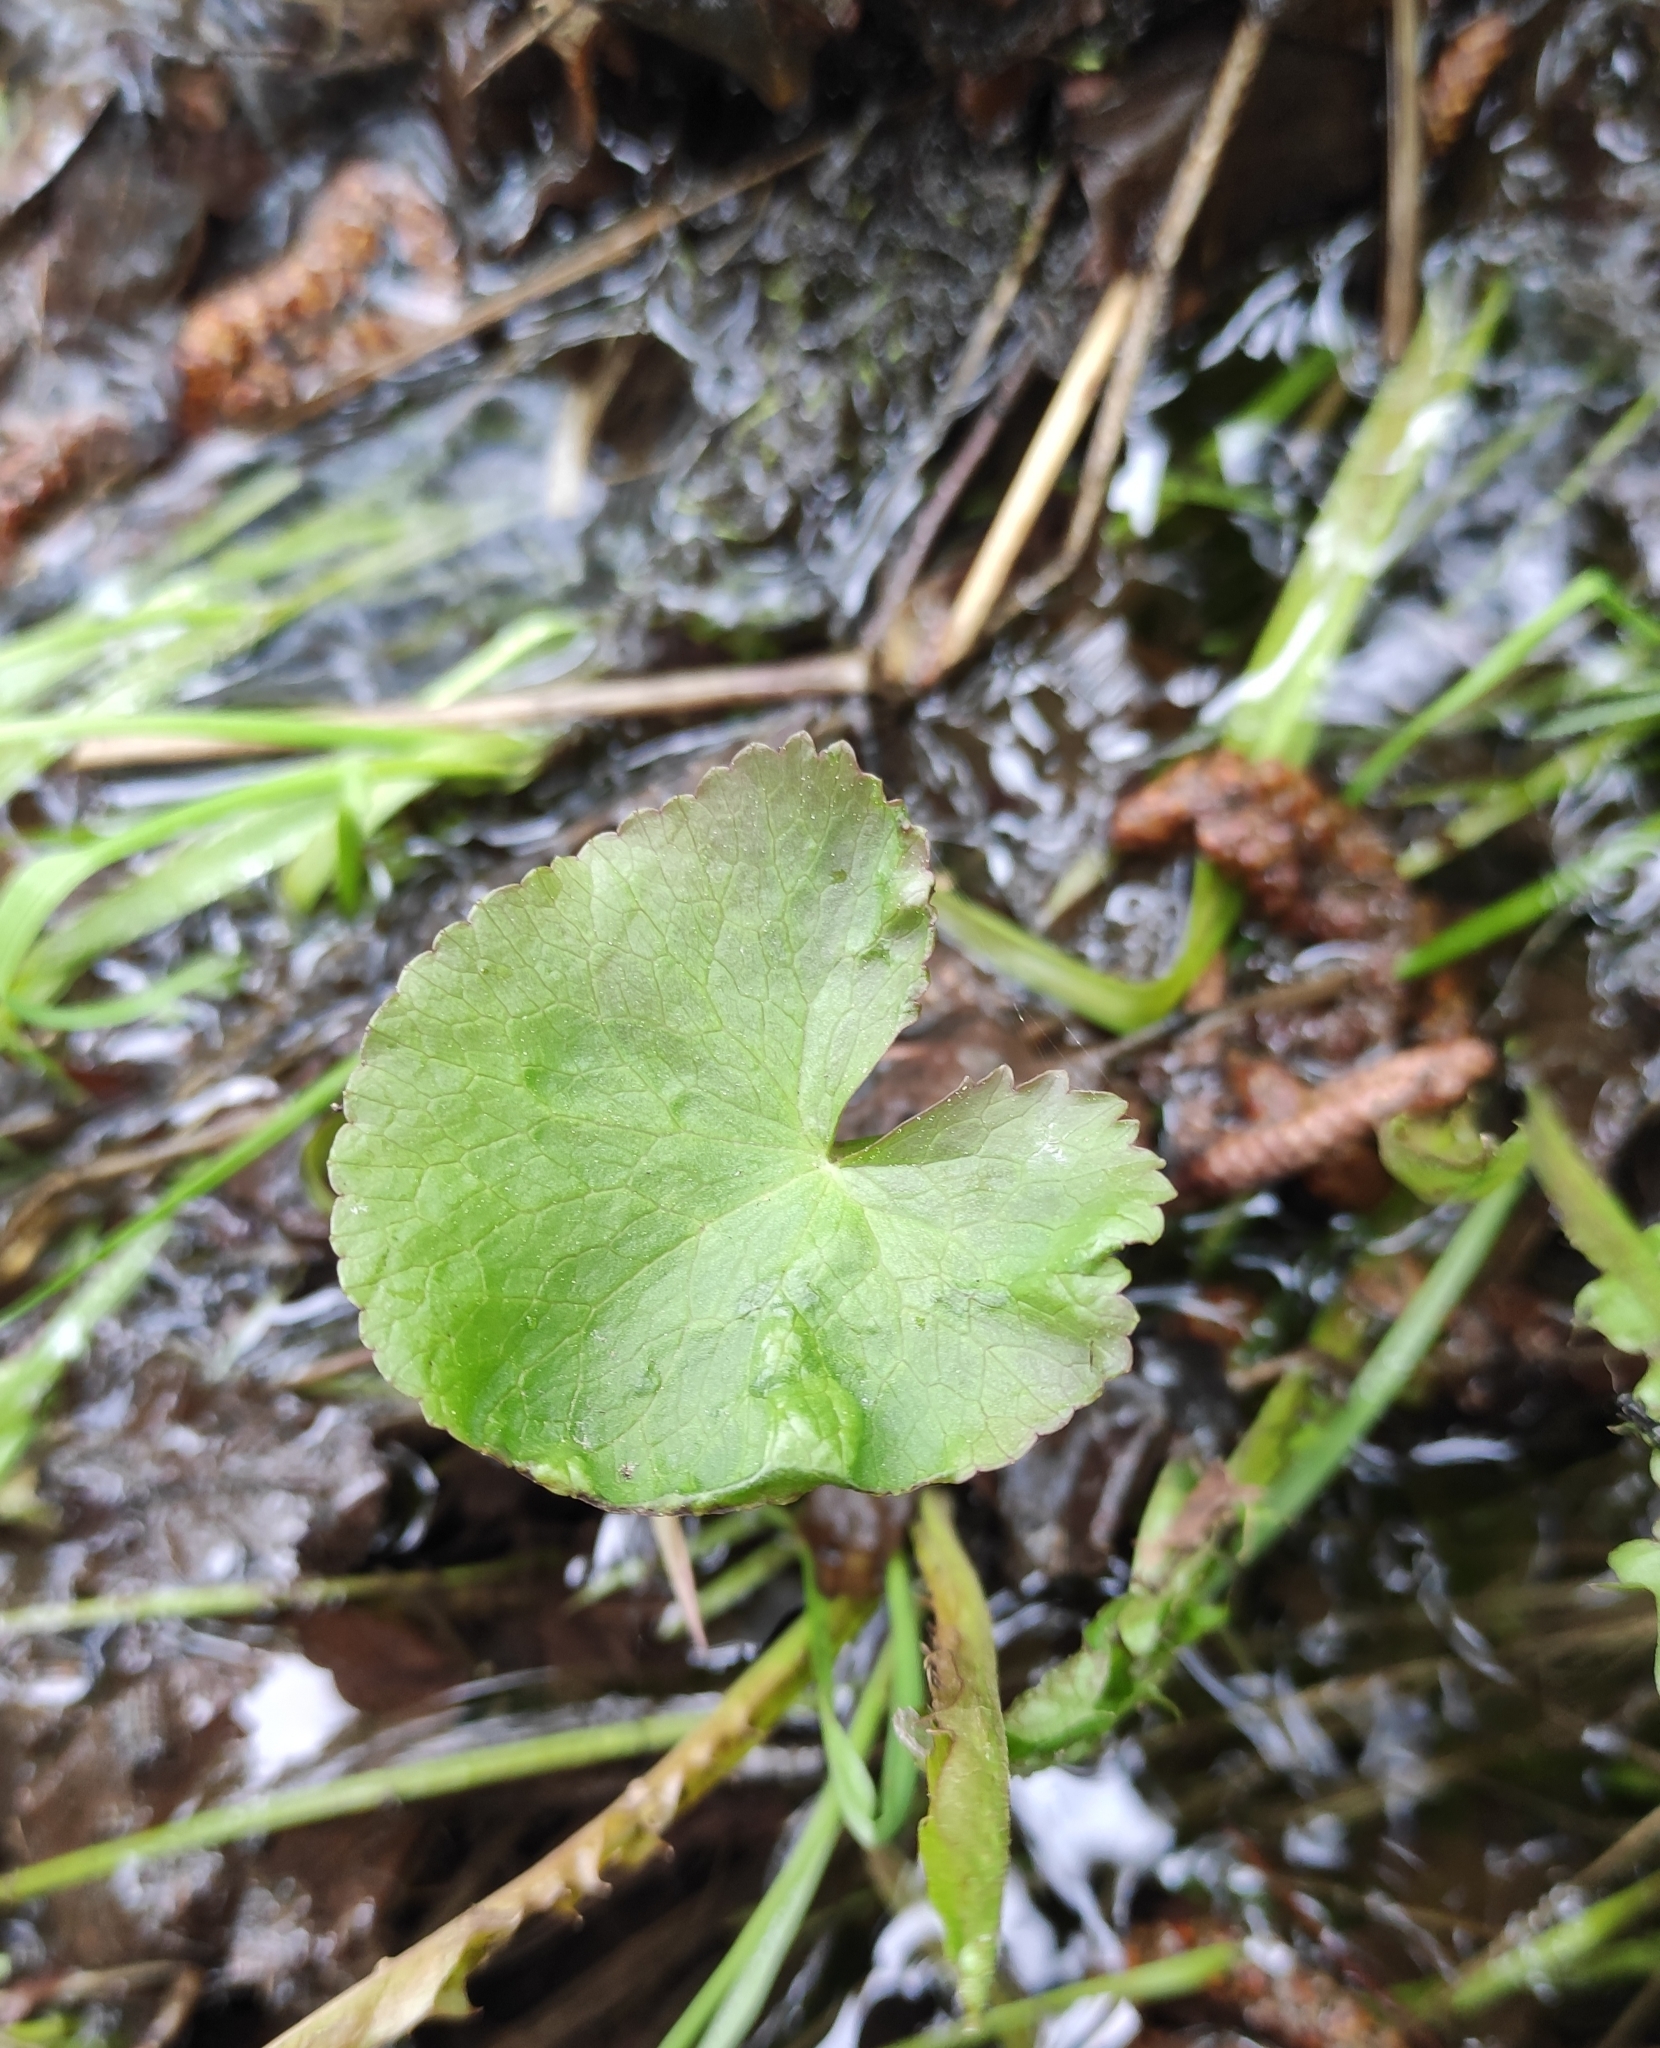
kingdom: Plantae
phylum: Tracheophyta
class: Magnoliopsida
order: Ranunculales
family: Ranunculaceae
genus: Caltha
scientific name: Caltha palustris
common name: Marsh marigold
